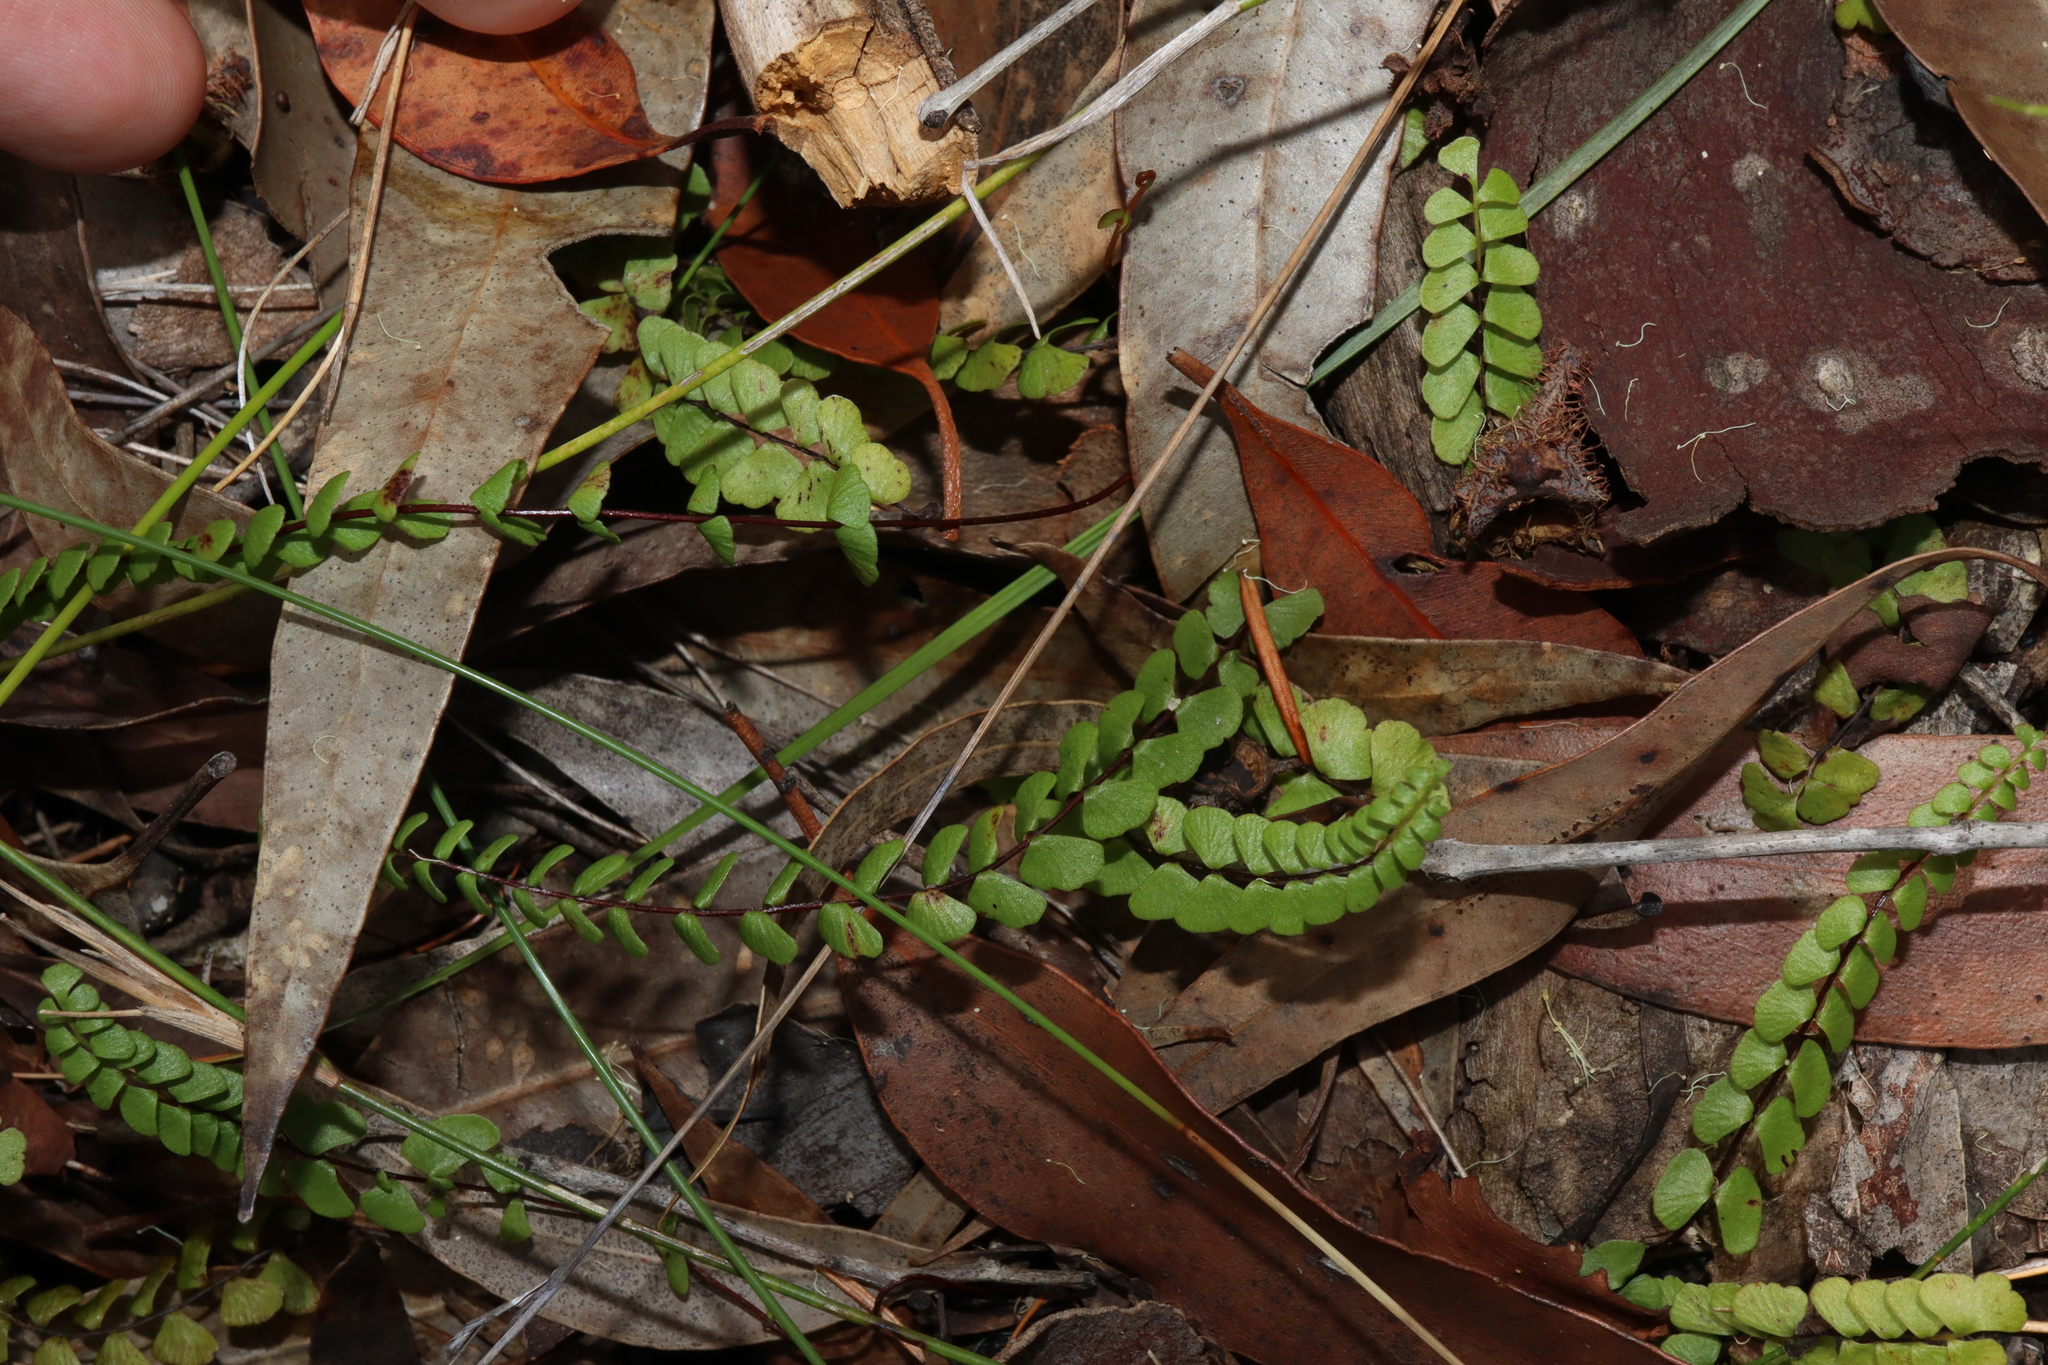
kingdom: Plantae
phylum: Tracheophyta
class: Polypodiopsida
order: Polypodiales
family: Lindsaeaceae
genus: Lindsaea
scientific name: Lindsaea linearis
